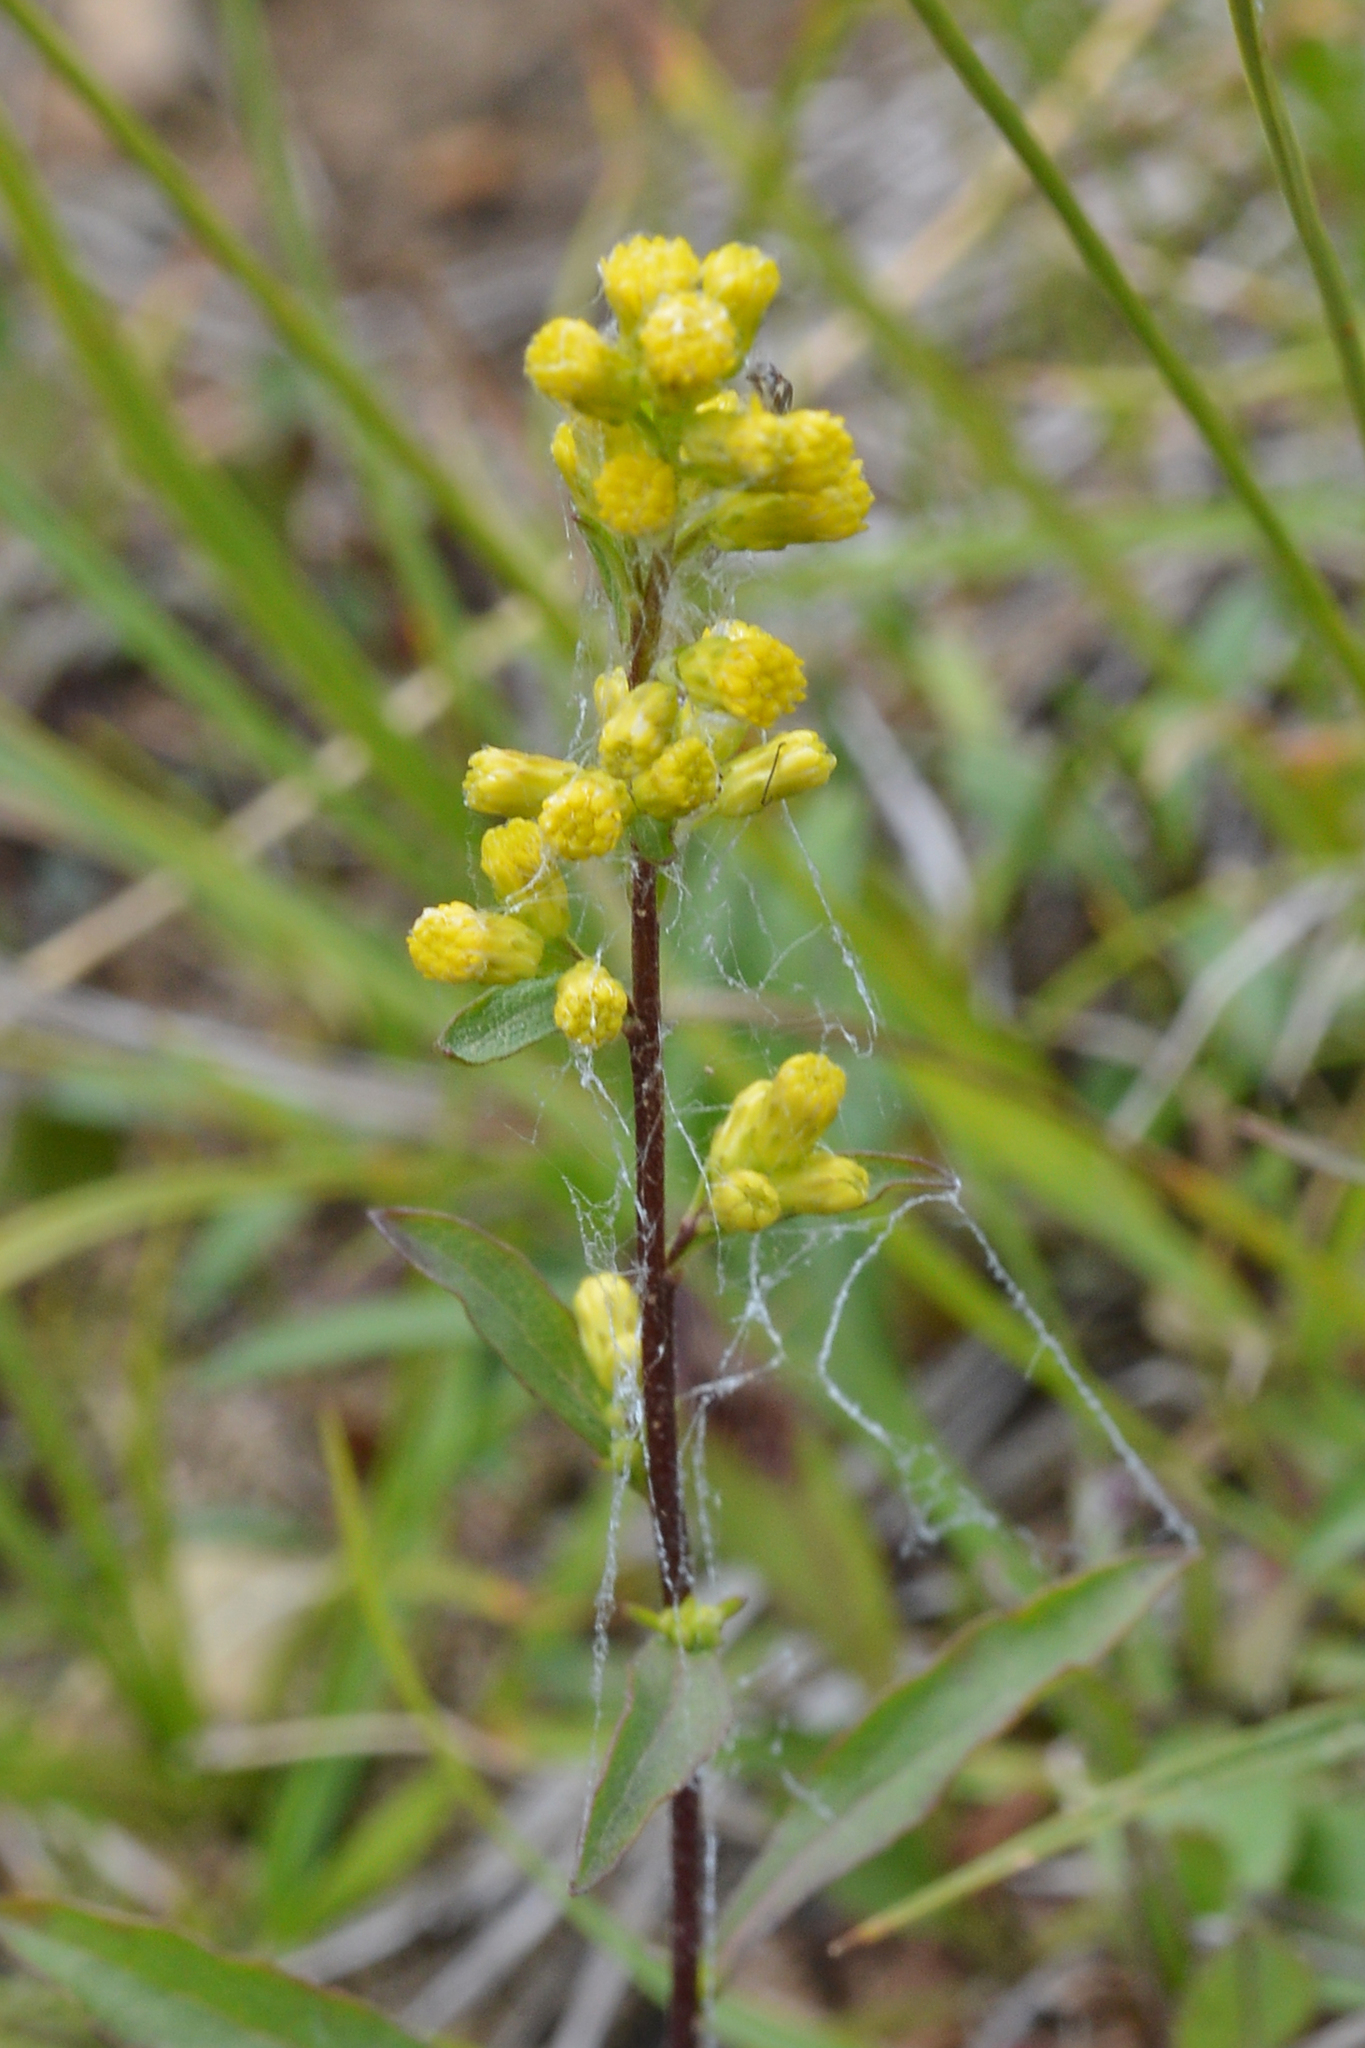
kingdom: Plantae
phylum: Tracheophyta
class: Magnoliopsida
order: Asterales
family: Asteraceae
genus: Solidago
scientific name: Solidago uliginosa
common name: Bog goldenrod
